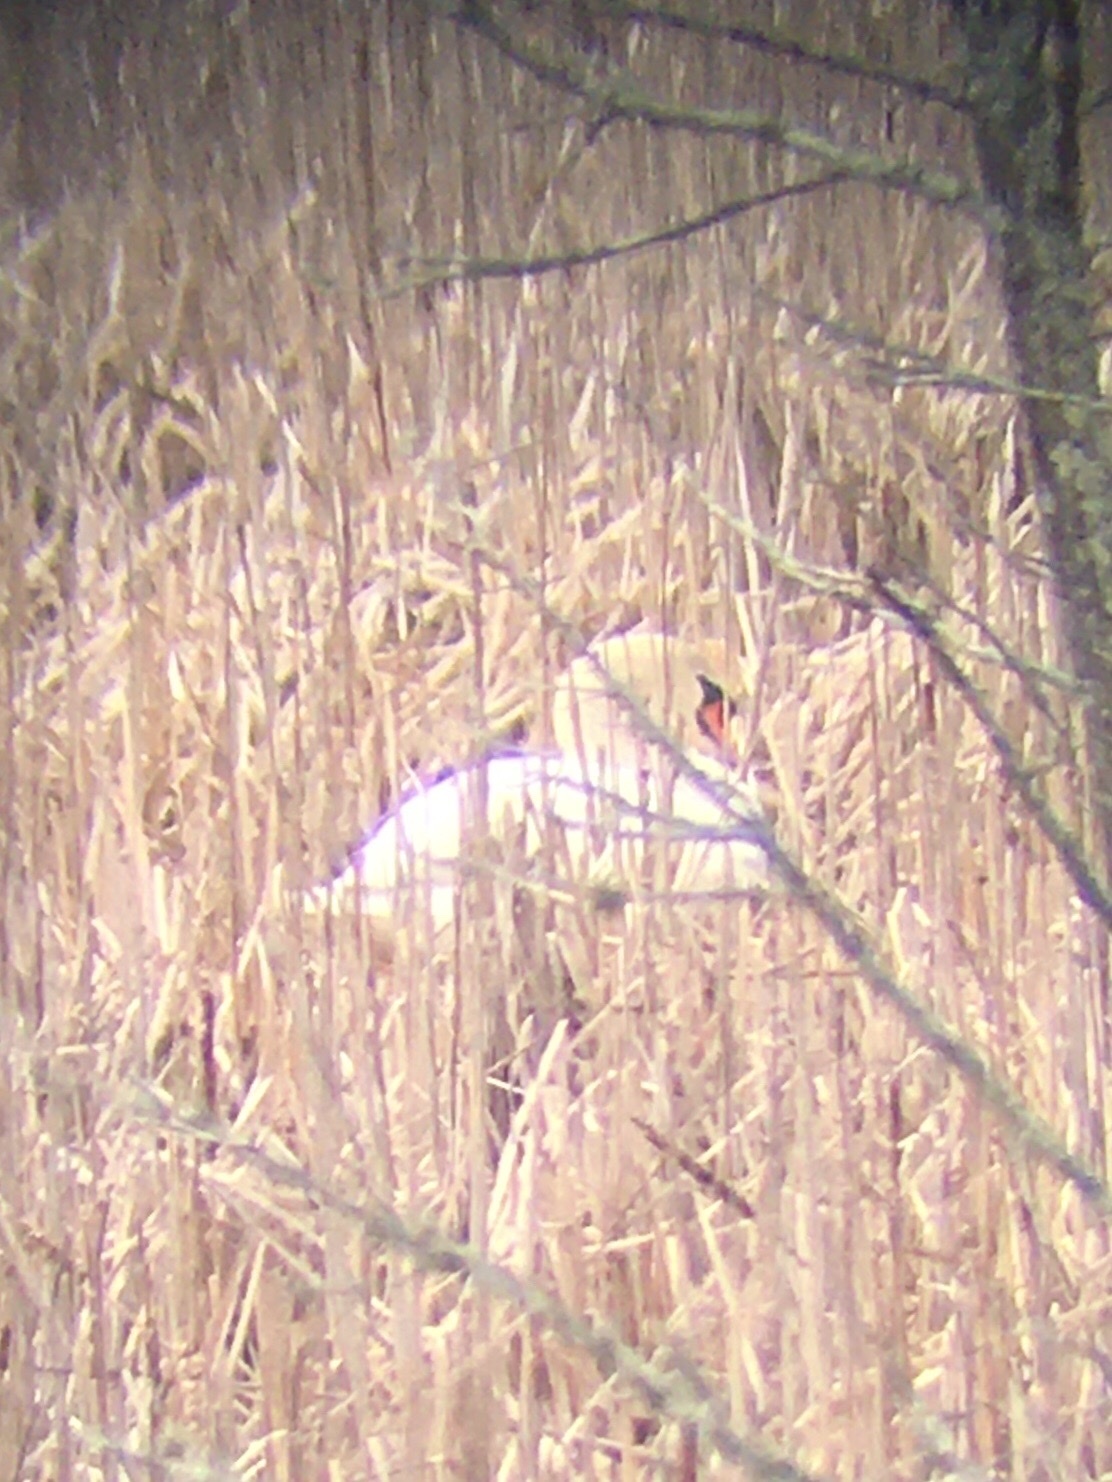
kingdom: Animalia
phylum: Chordata
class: Aves
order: Anseriformes
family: Anatidae
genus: Cygnus
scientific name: Cygnus olor
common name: Mute swan
